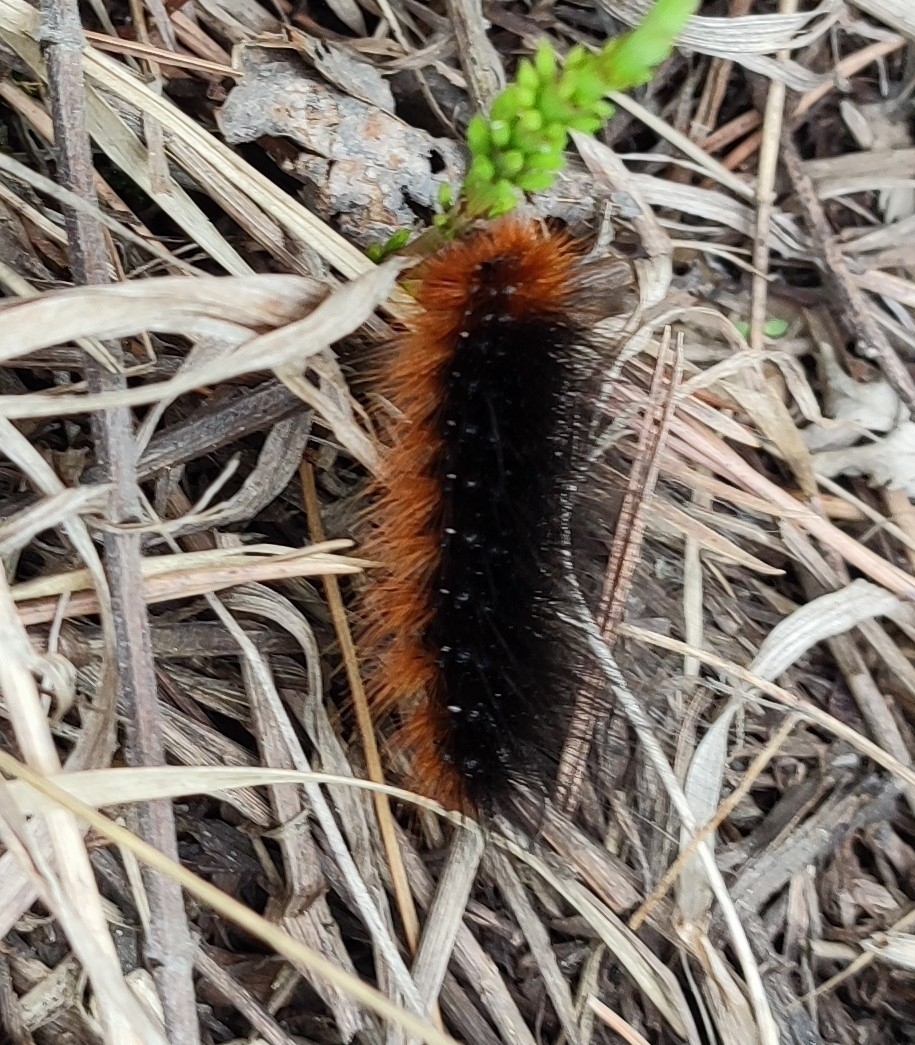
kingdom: Animalia
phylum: Arthropoda
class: Insecta
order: Lepidoptera
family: Erebidae
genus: Arctia
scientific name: Arctia caja
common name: Garden tiger
